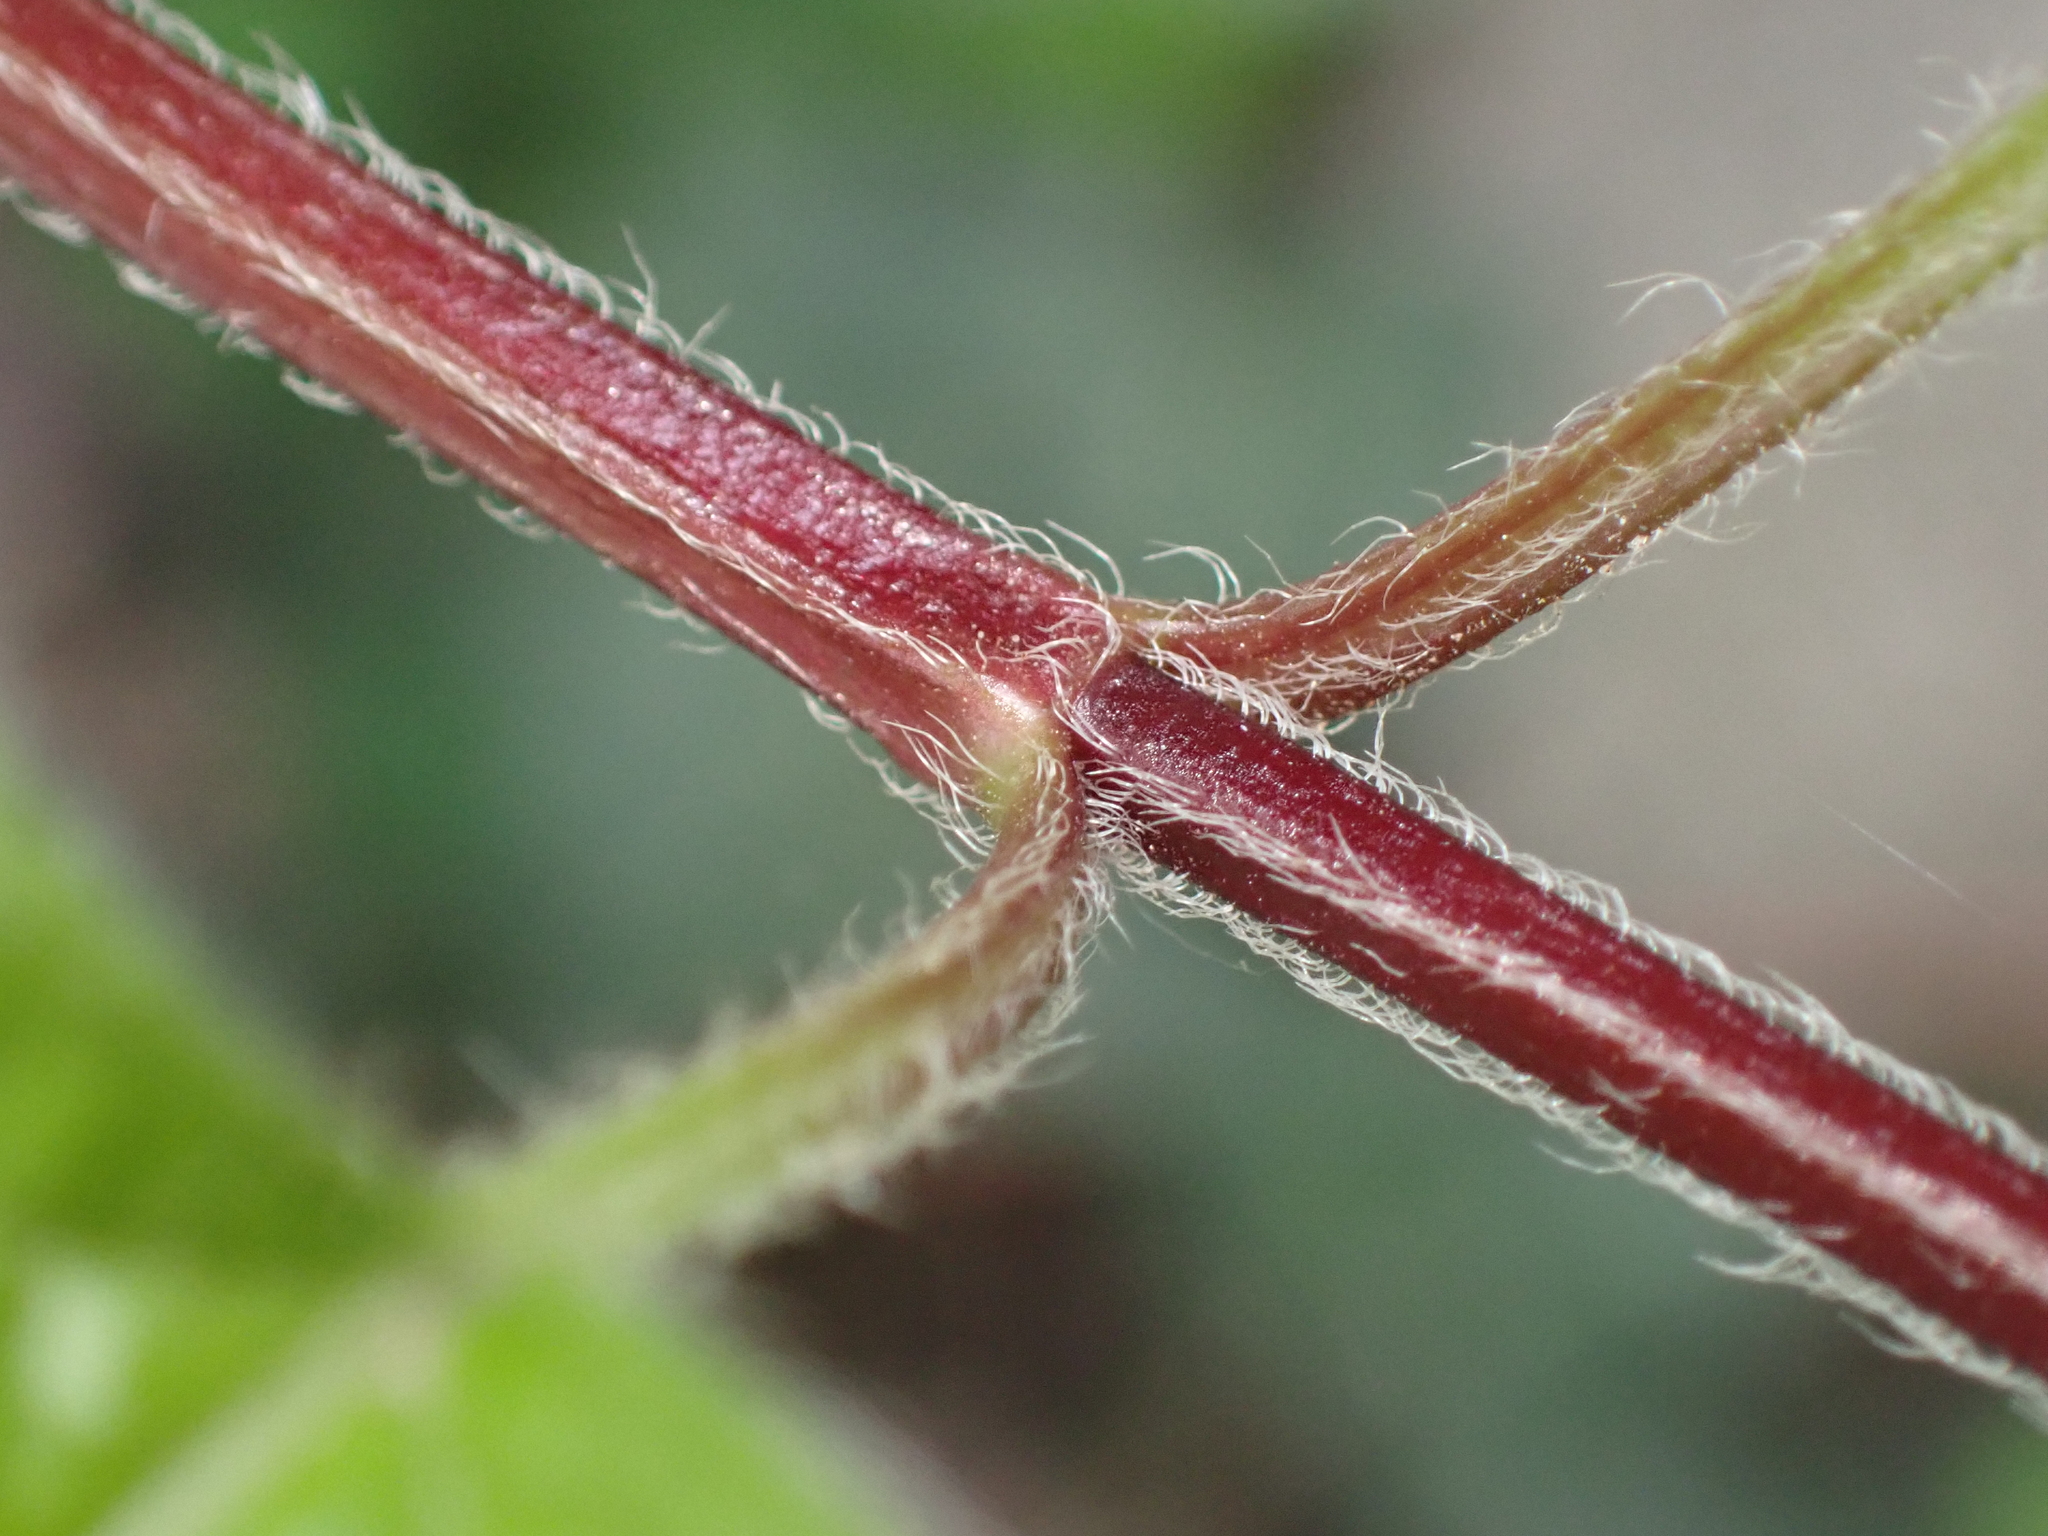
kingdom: Plantae
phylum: Tracheophyta
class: Magnoliopsida
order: Lamiales
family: Lamiaceae
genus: Lamium
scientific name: Lamium galeobdolon
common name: Yellow archangel
